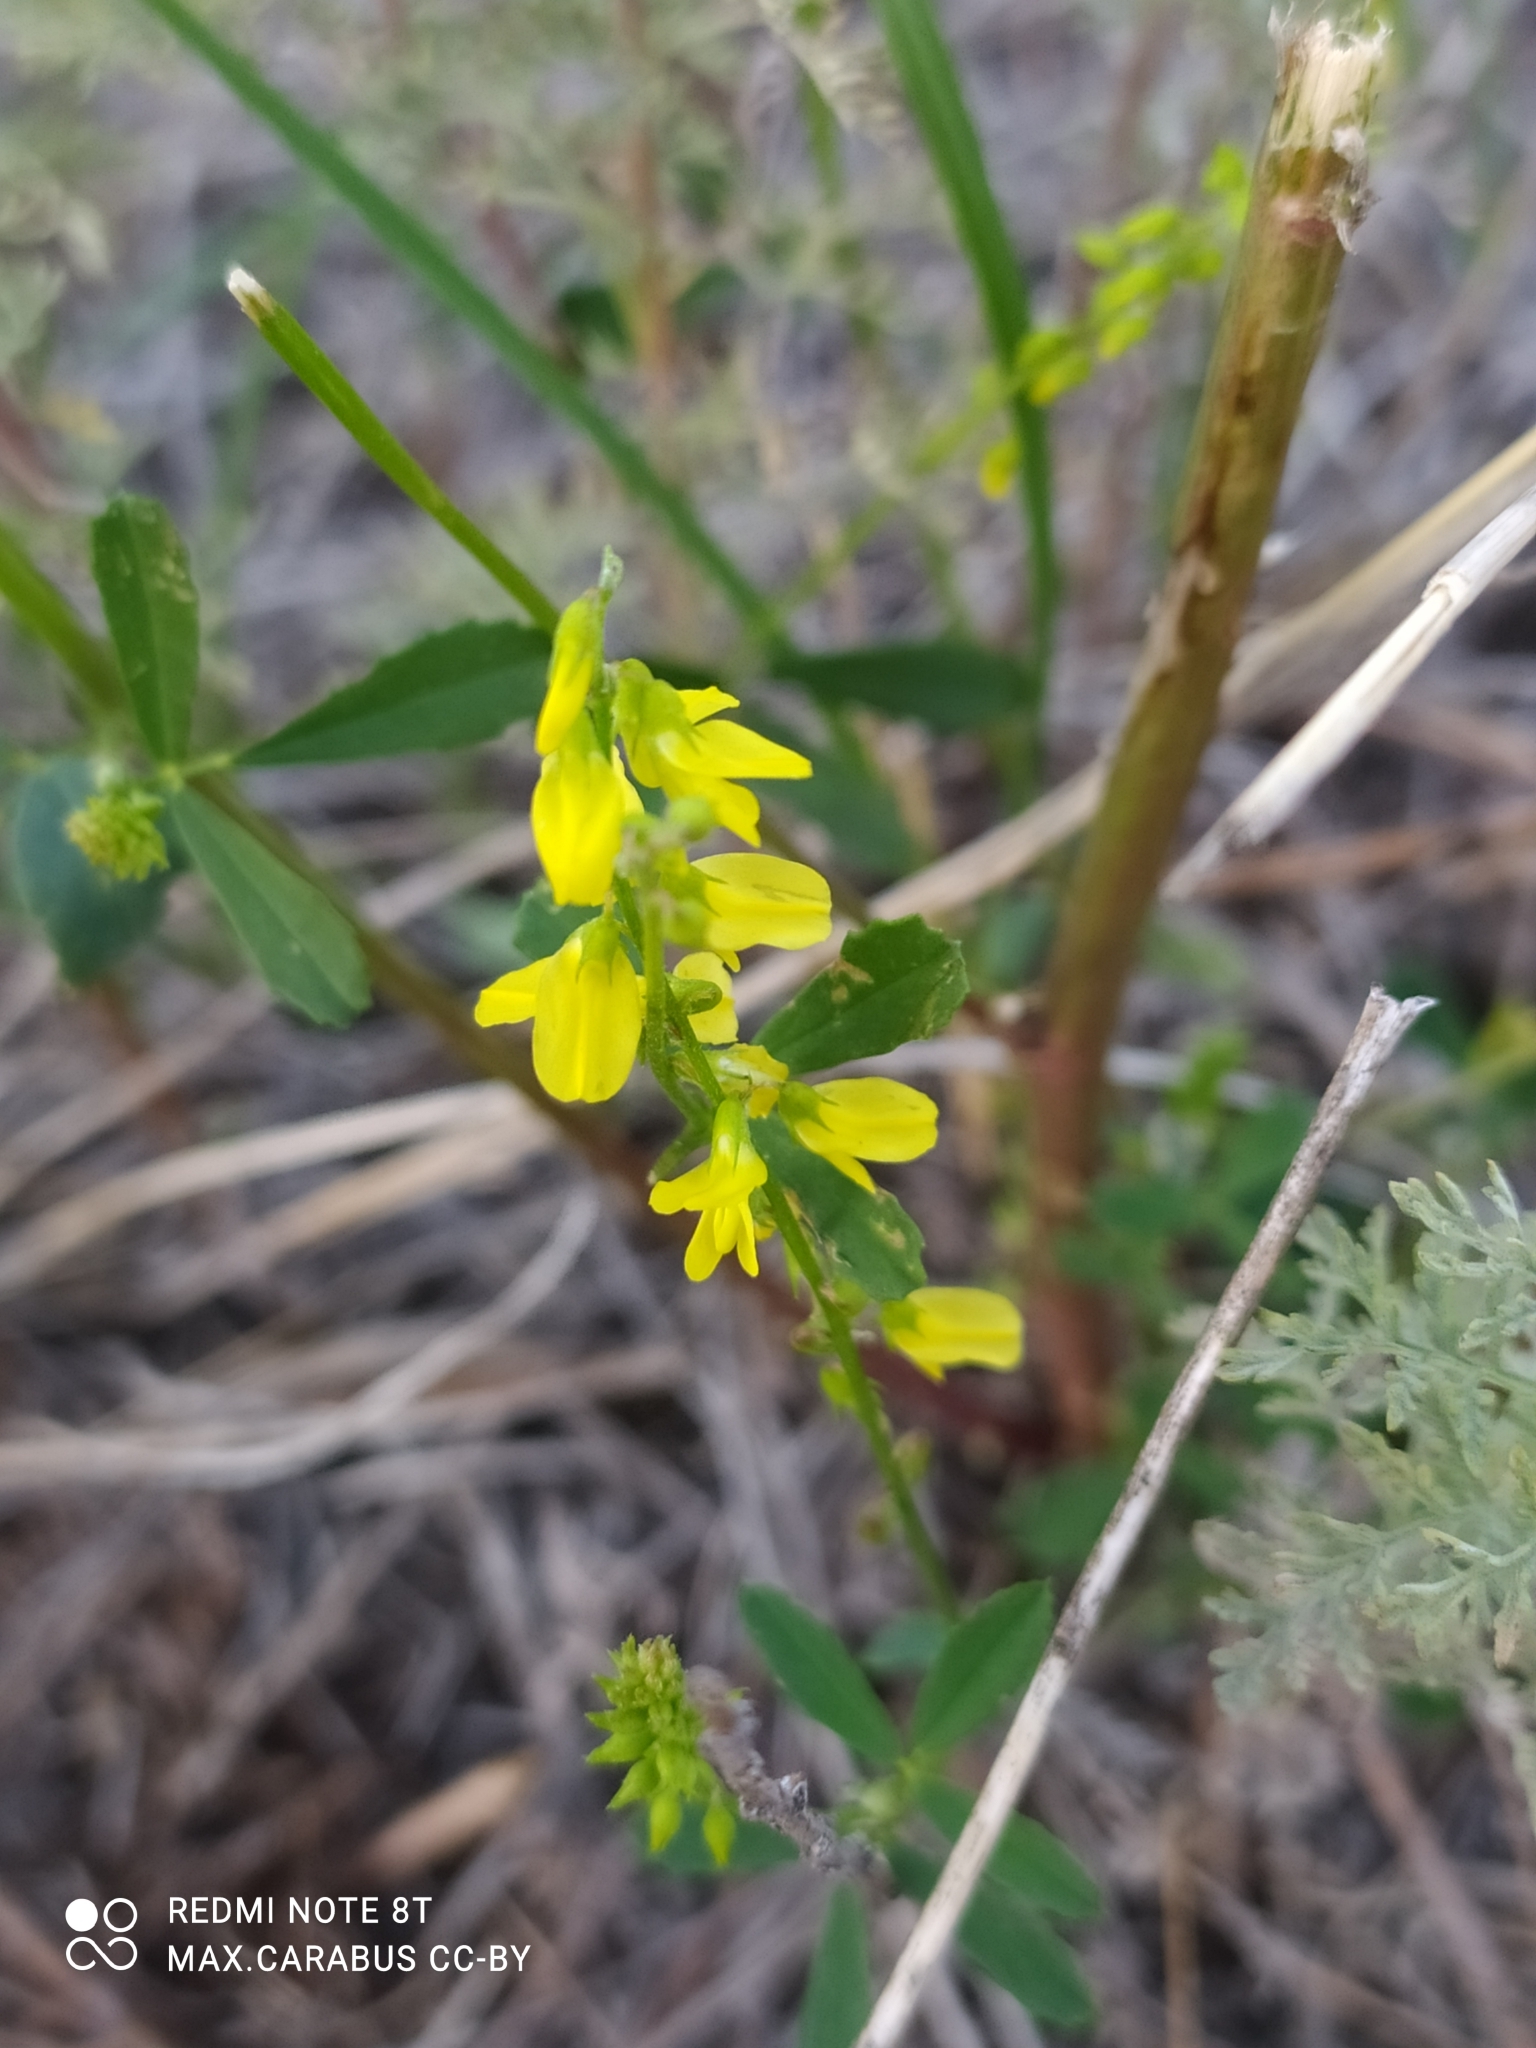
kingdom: Plantae
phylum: Tracheophyta
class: Magnoliopsida
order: Fabales
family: Fabaceae
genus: Melilotus
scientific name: Melilotus officinalis
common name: Sweetclover
